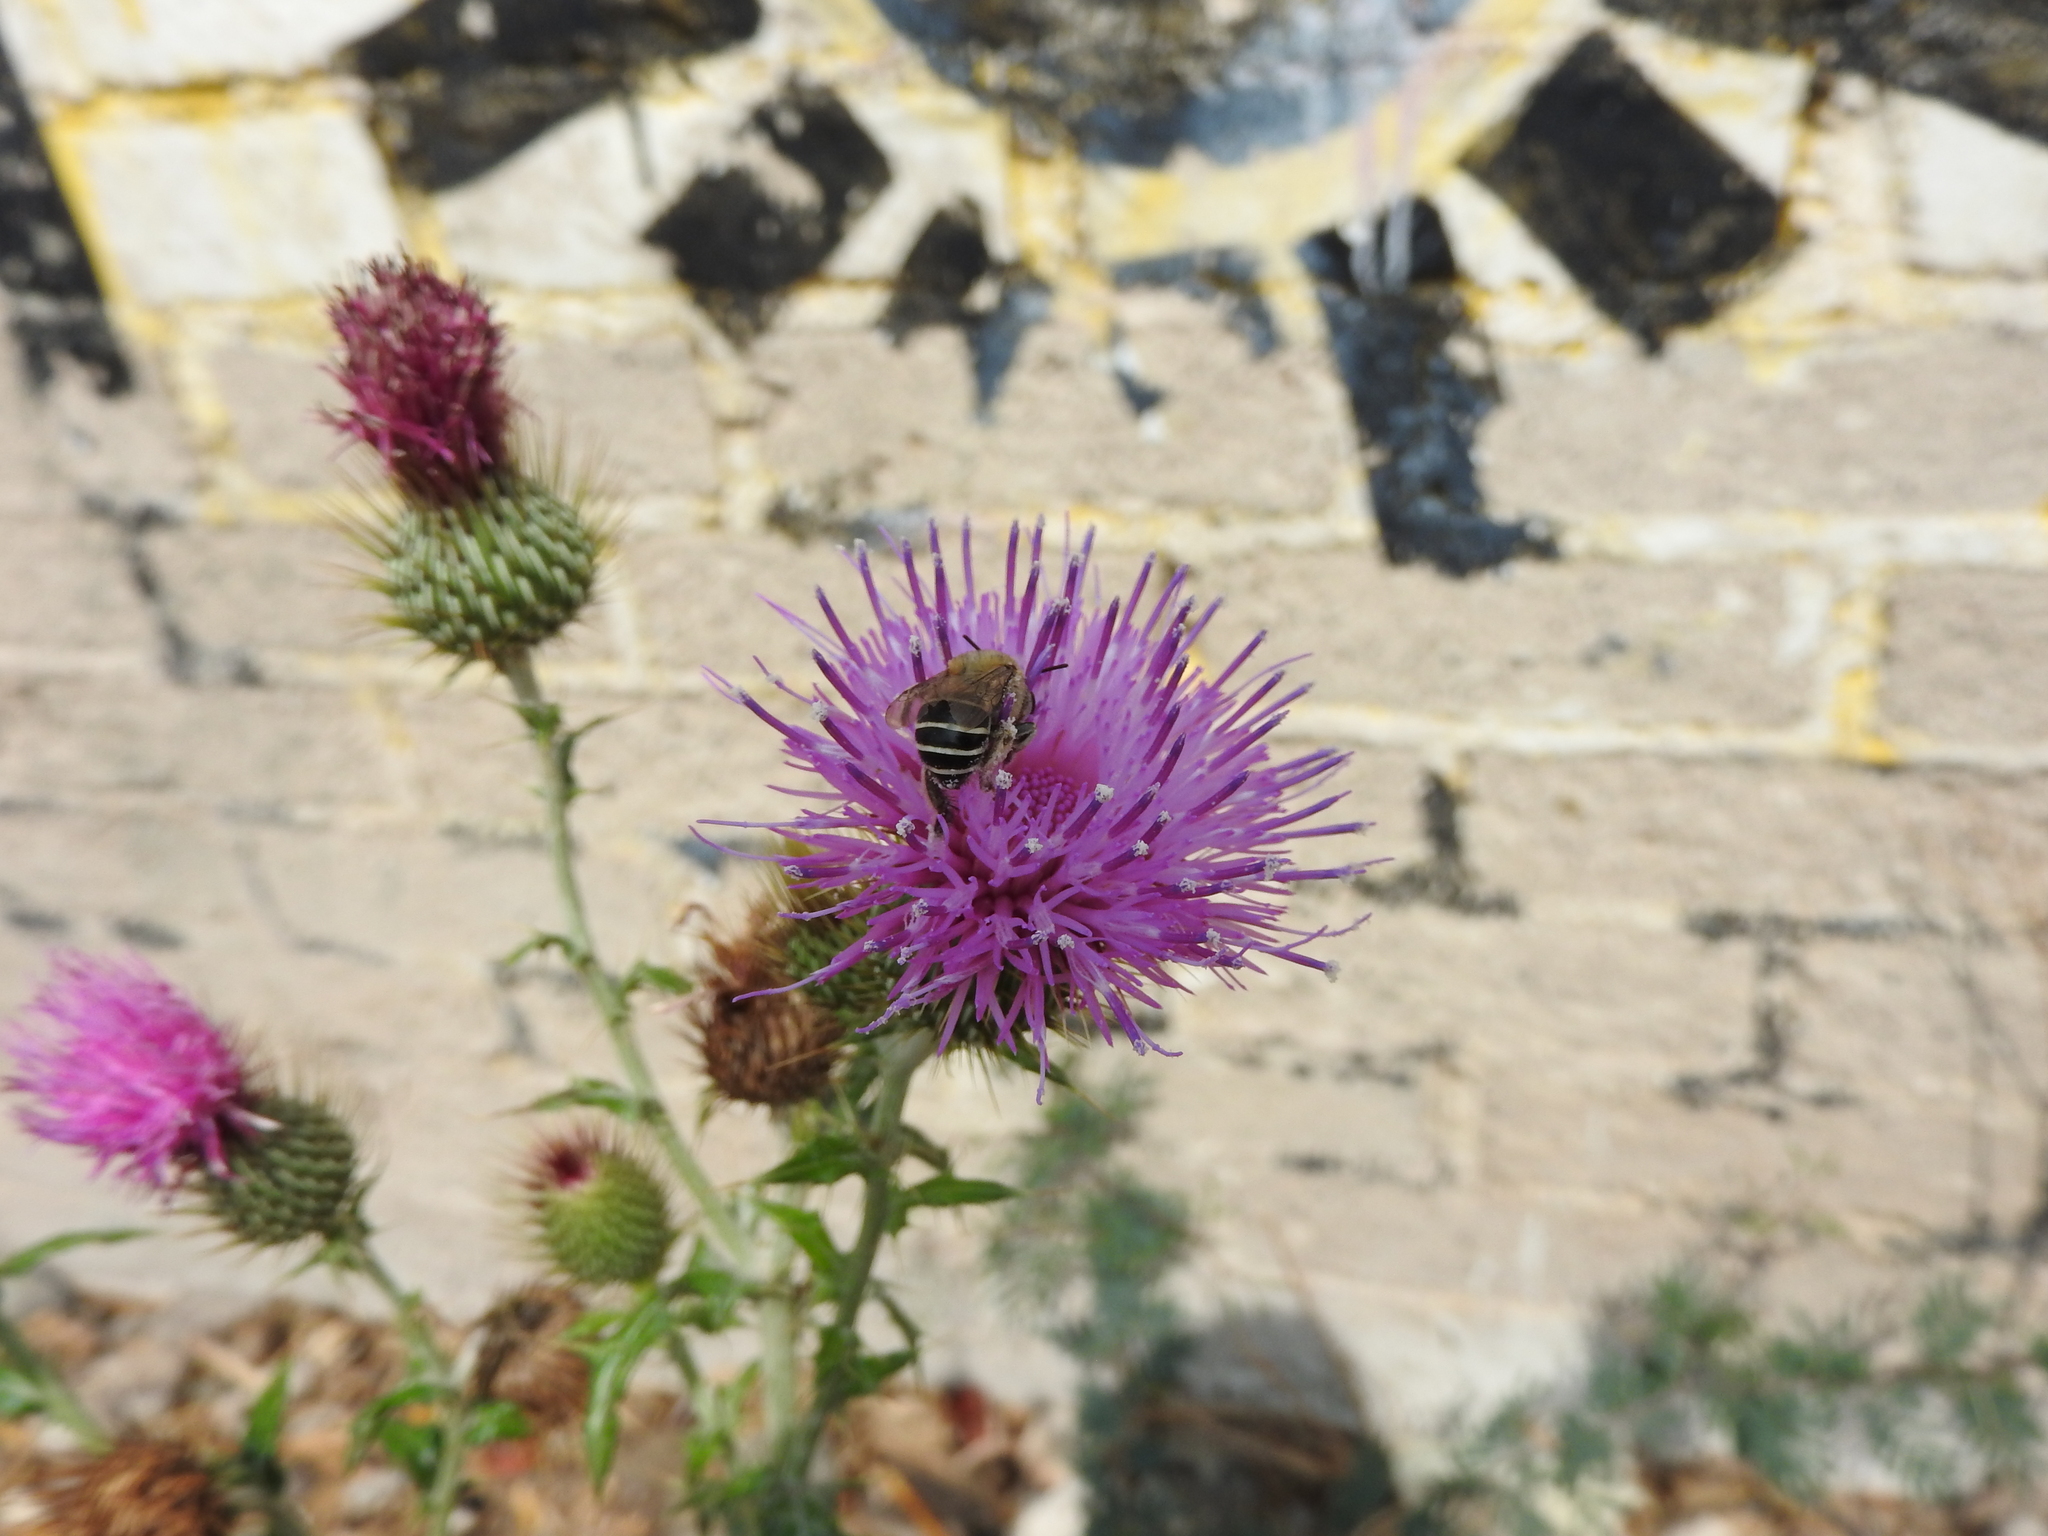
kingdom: Animalia
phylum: Arthropoda
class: Insecta
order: Hymenoptera
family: Apidae
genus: Anthophora
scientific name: Anthophora californica
